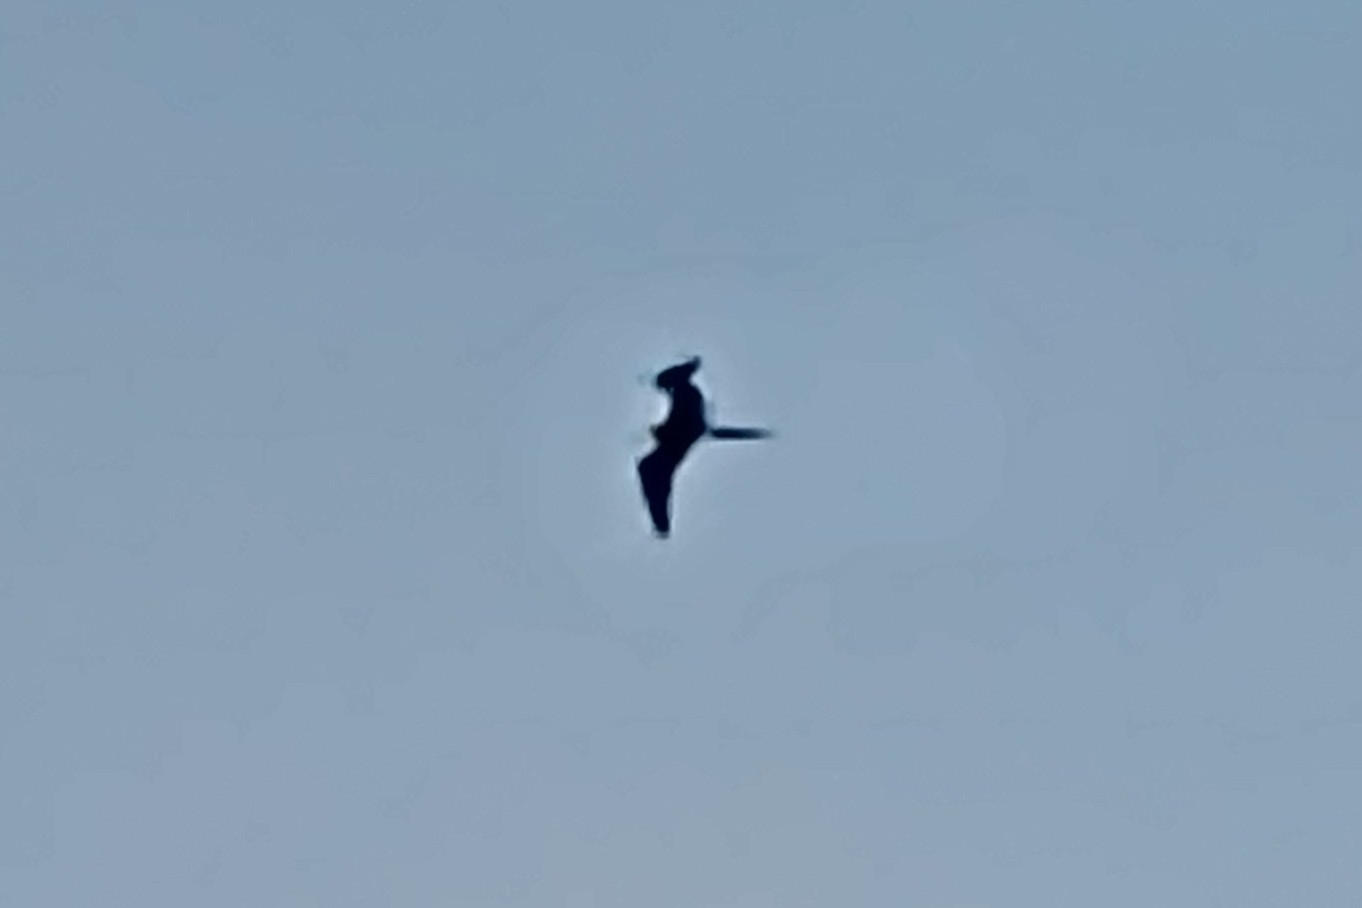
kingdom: Animalia
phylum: Chordata
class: Aves
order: Suliformes
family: Fregatidae
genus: Fregata
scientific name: Fregata magnificens
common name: Magnificent frigatebird
